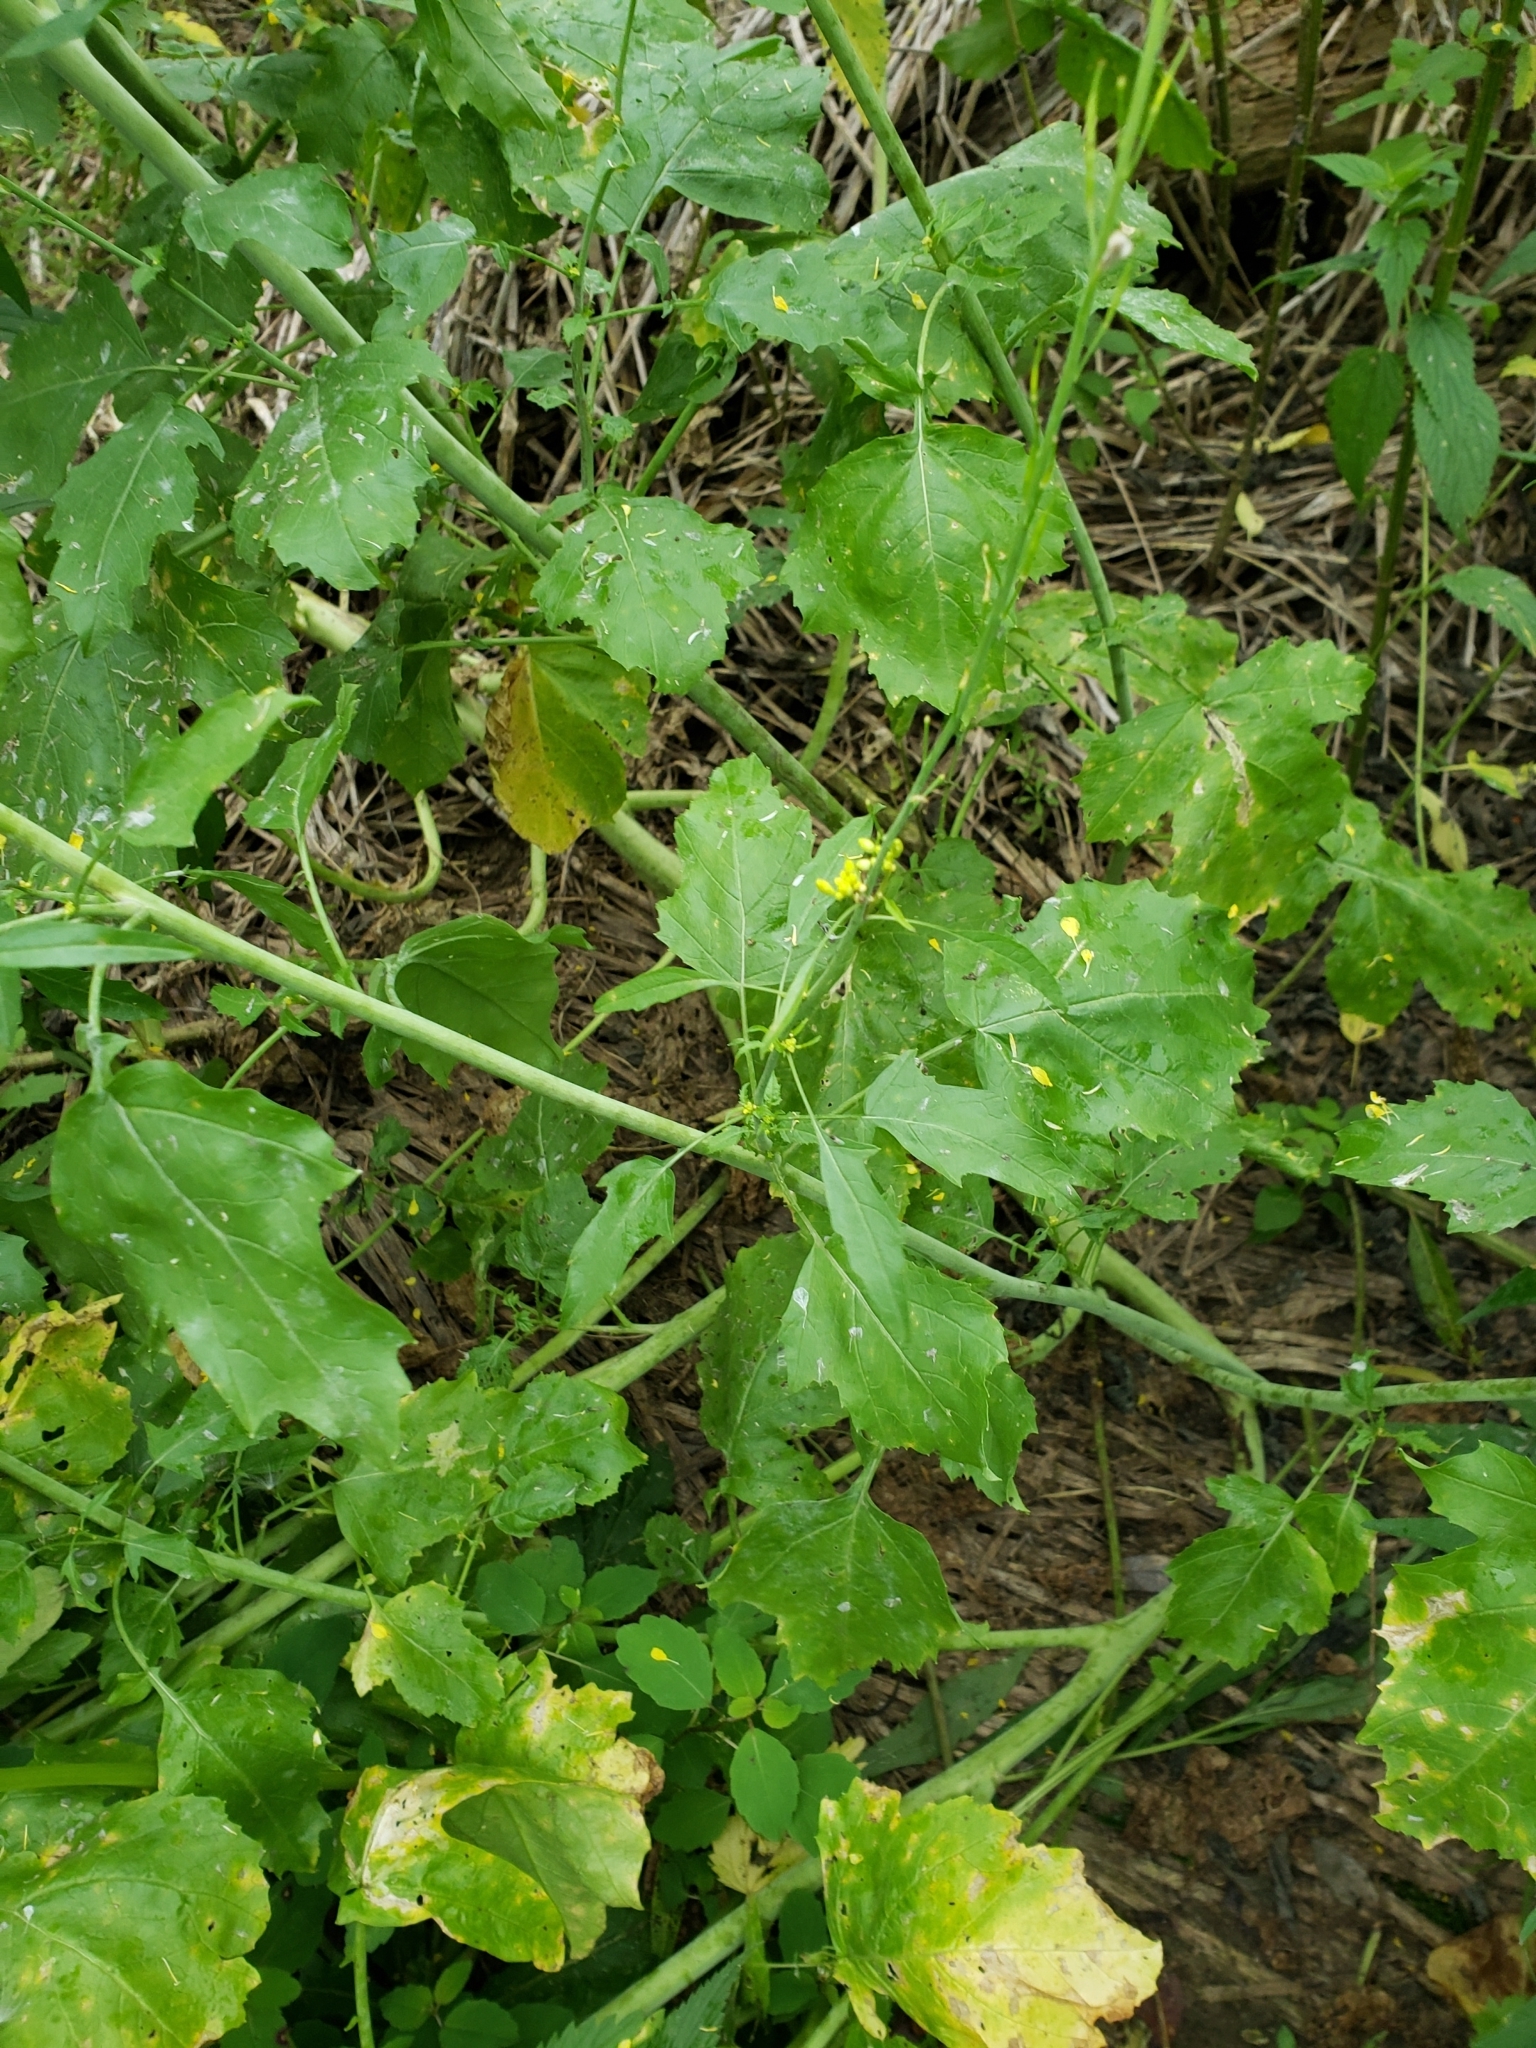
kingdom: Plantae
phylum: Tracheophyta
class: Magnoliopsida
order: Brassicales
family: Brassicaceae
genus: Brassica
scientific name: Brassica juncea
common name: Brown mustard
